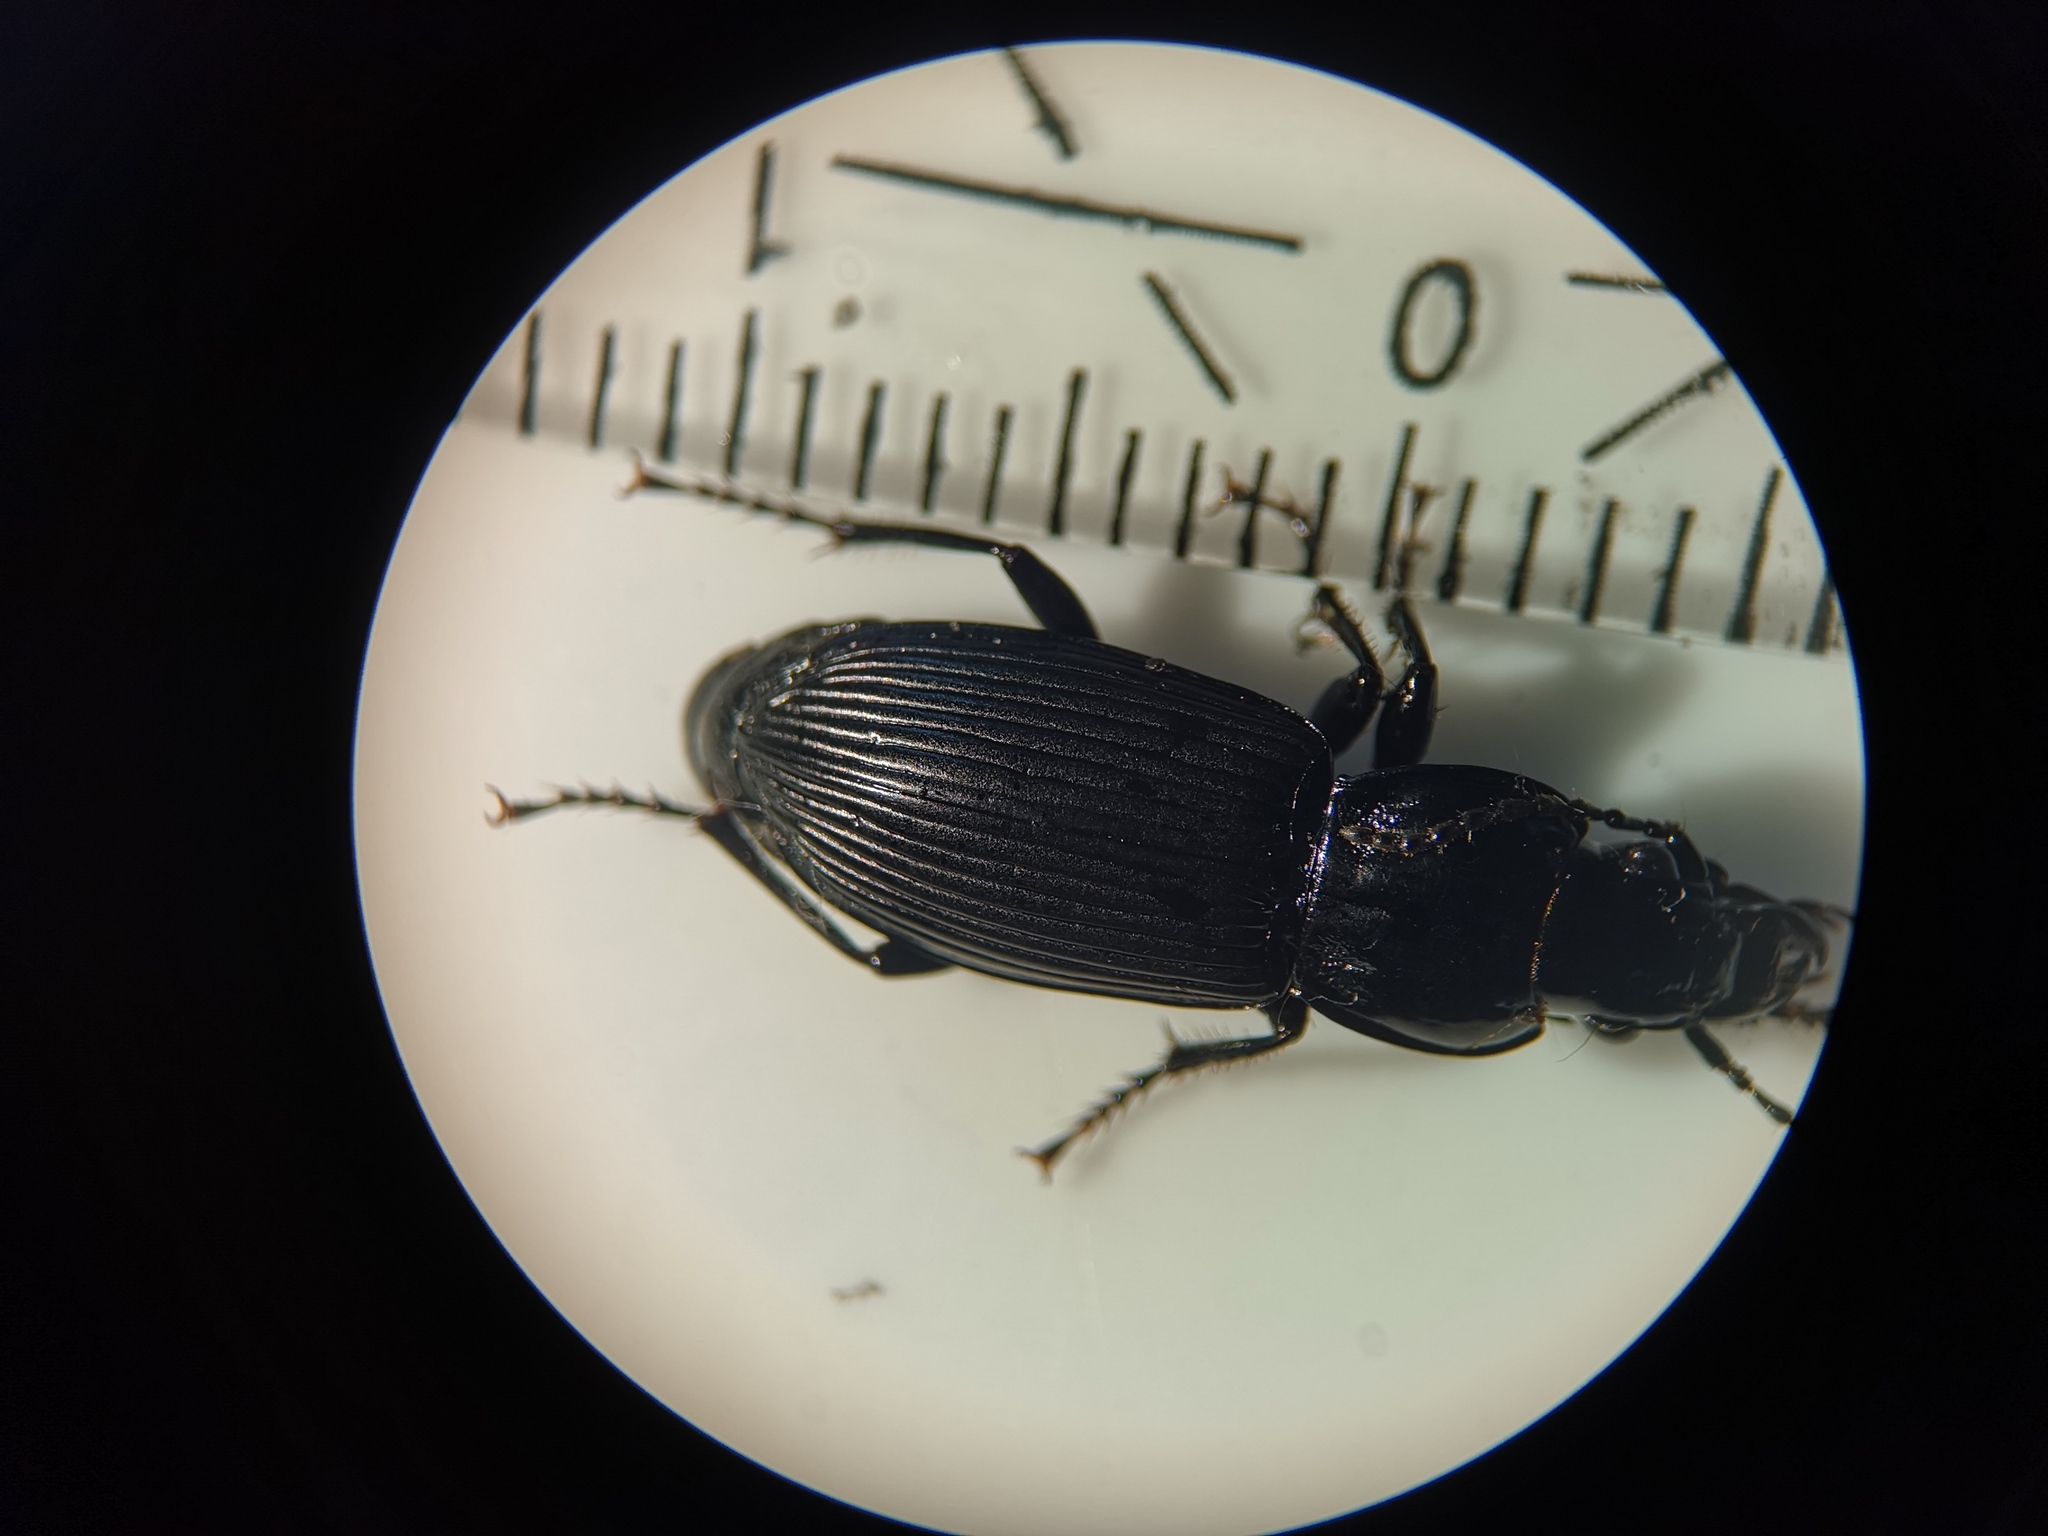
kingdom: Animalia
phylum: Arthropoda
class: Insecta
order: Coleoptera
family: Carabidae
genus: Pterostichus
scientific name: Pterostichus melanarius
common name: European dark harp ground beetle
